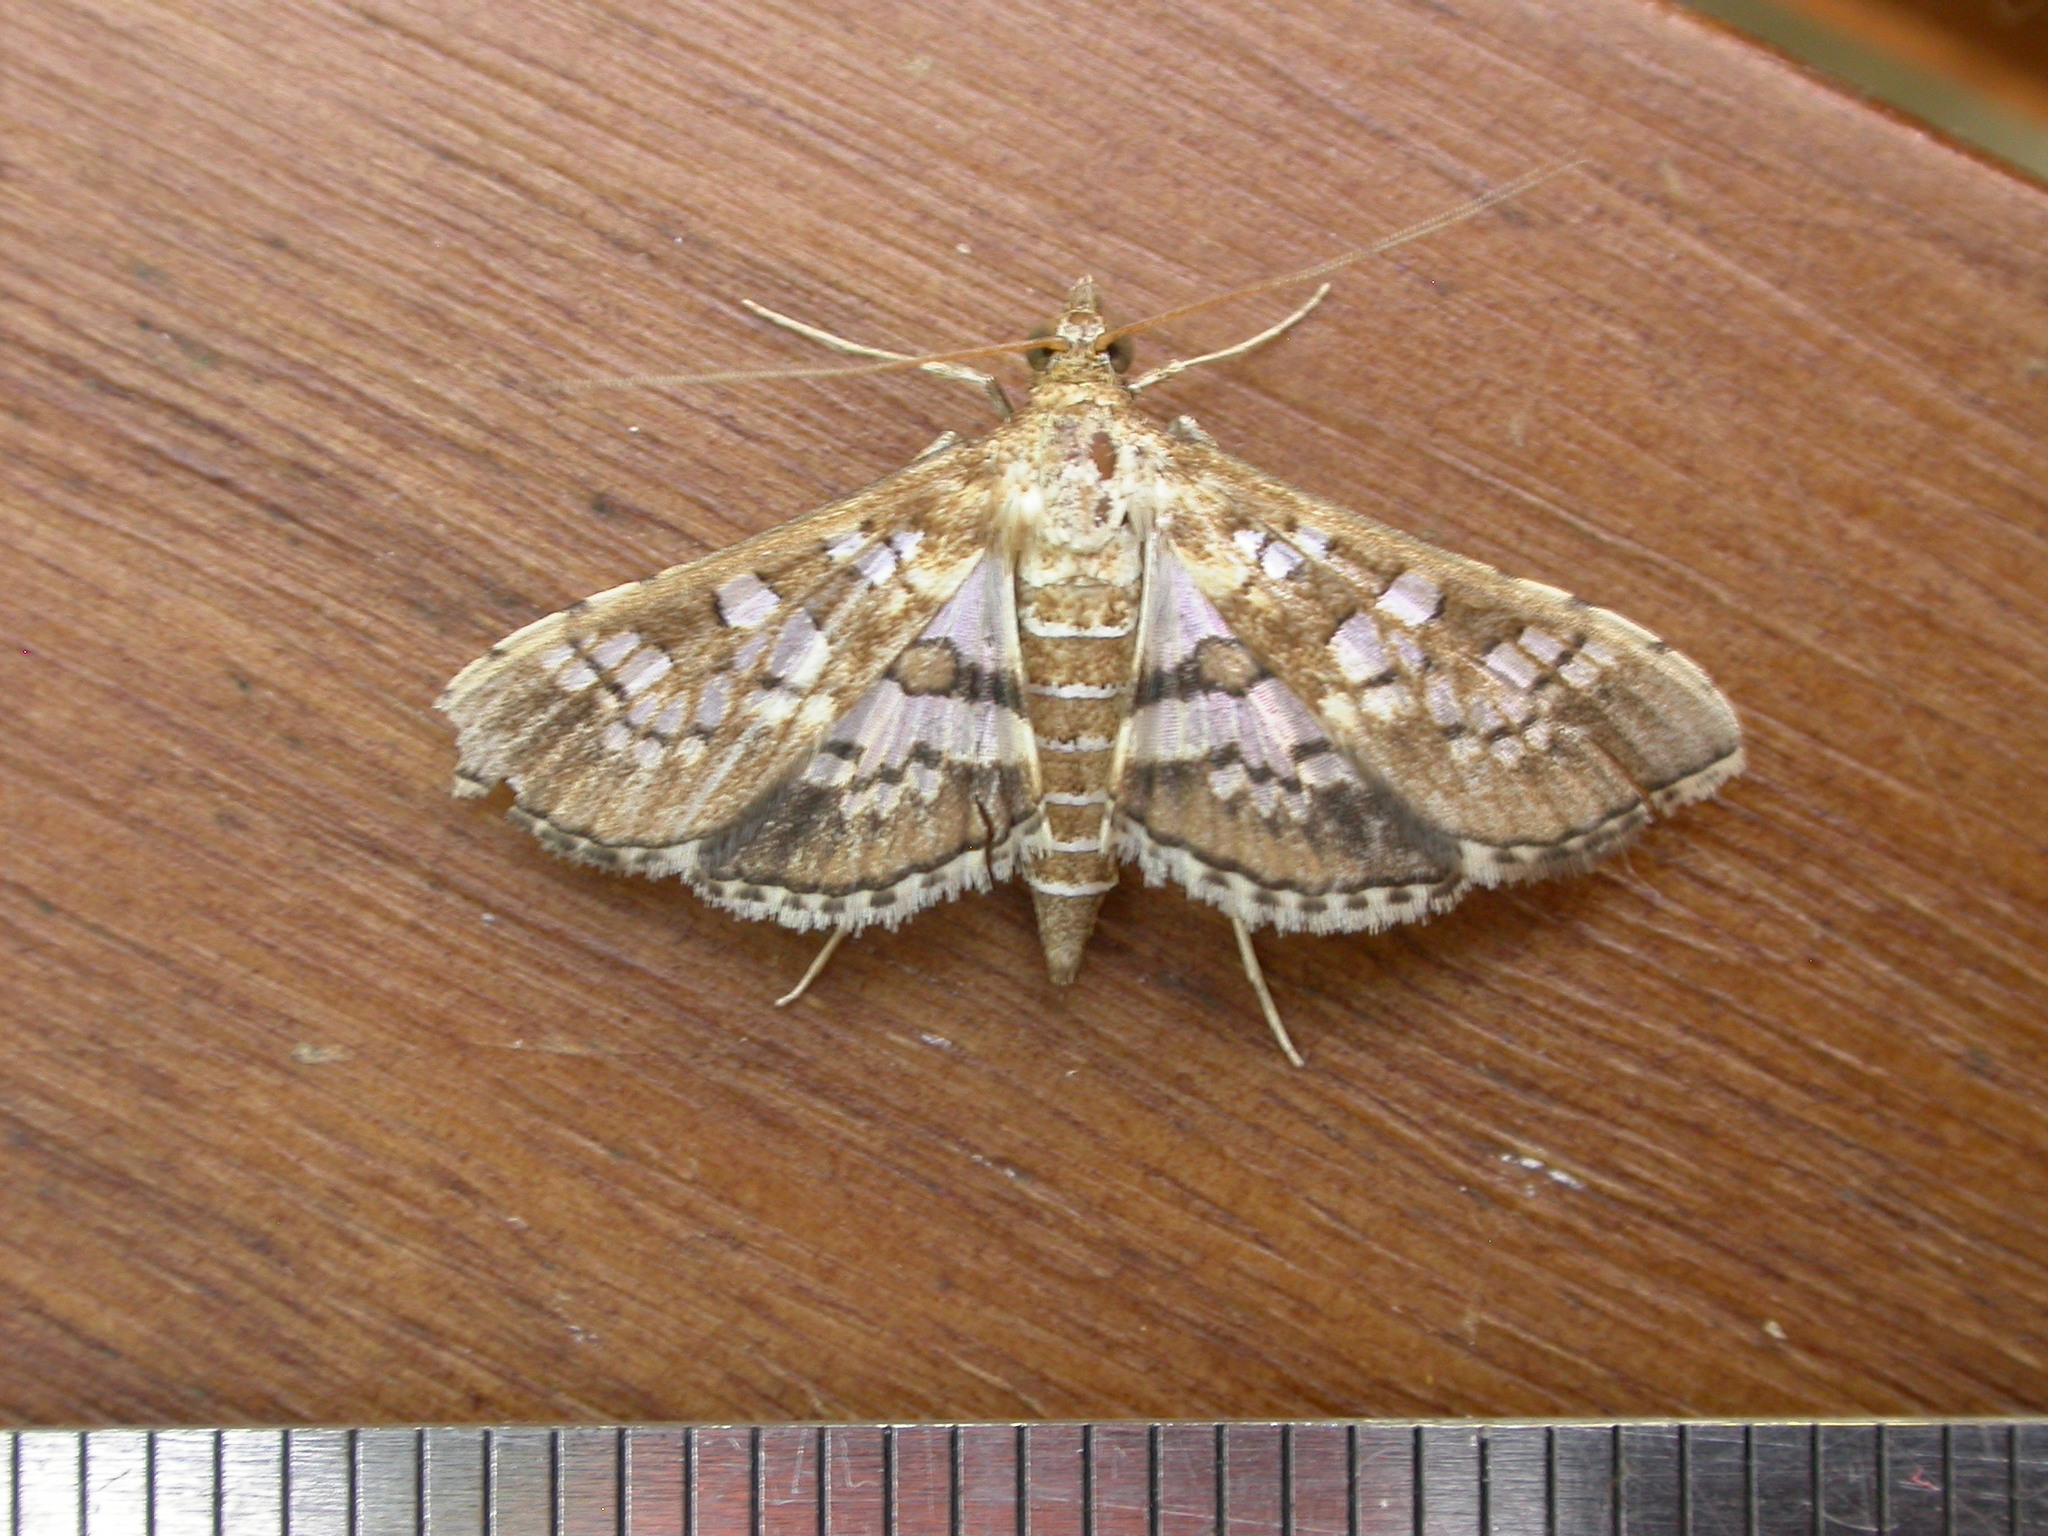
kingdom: Animalia
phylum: Arthropoda
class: Insecta
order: Lepidoptera
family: Crambidae
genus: Sameodes
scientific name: Sameodes cancellalis
